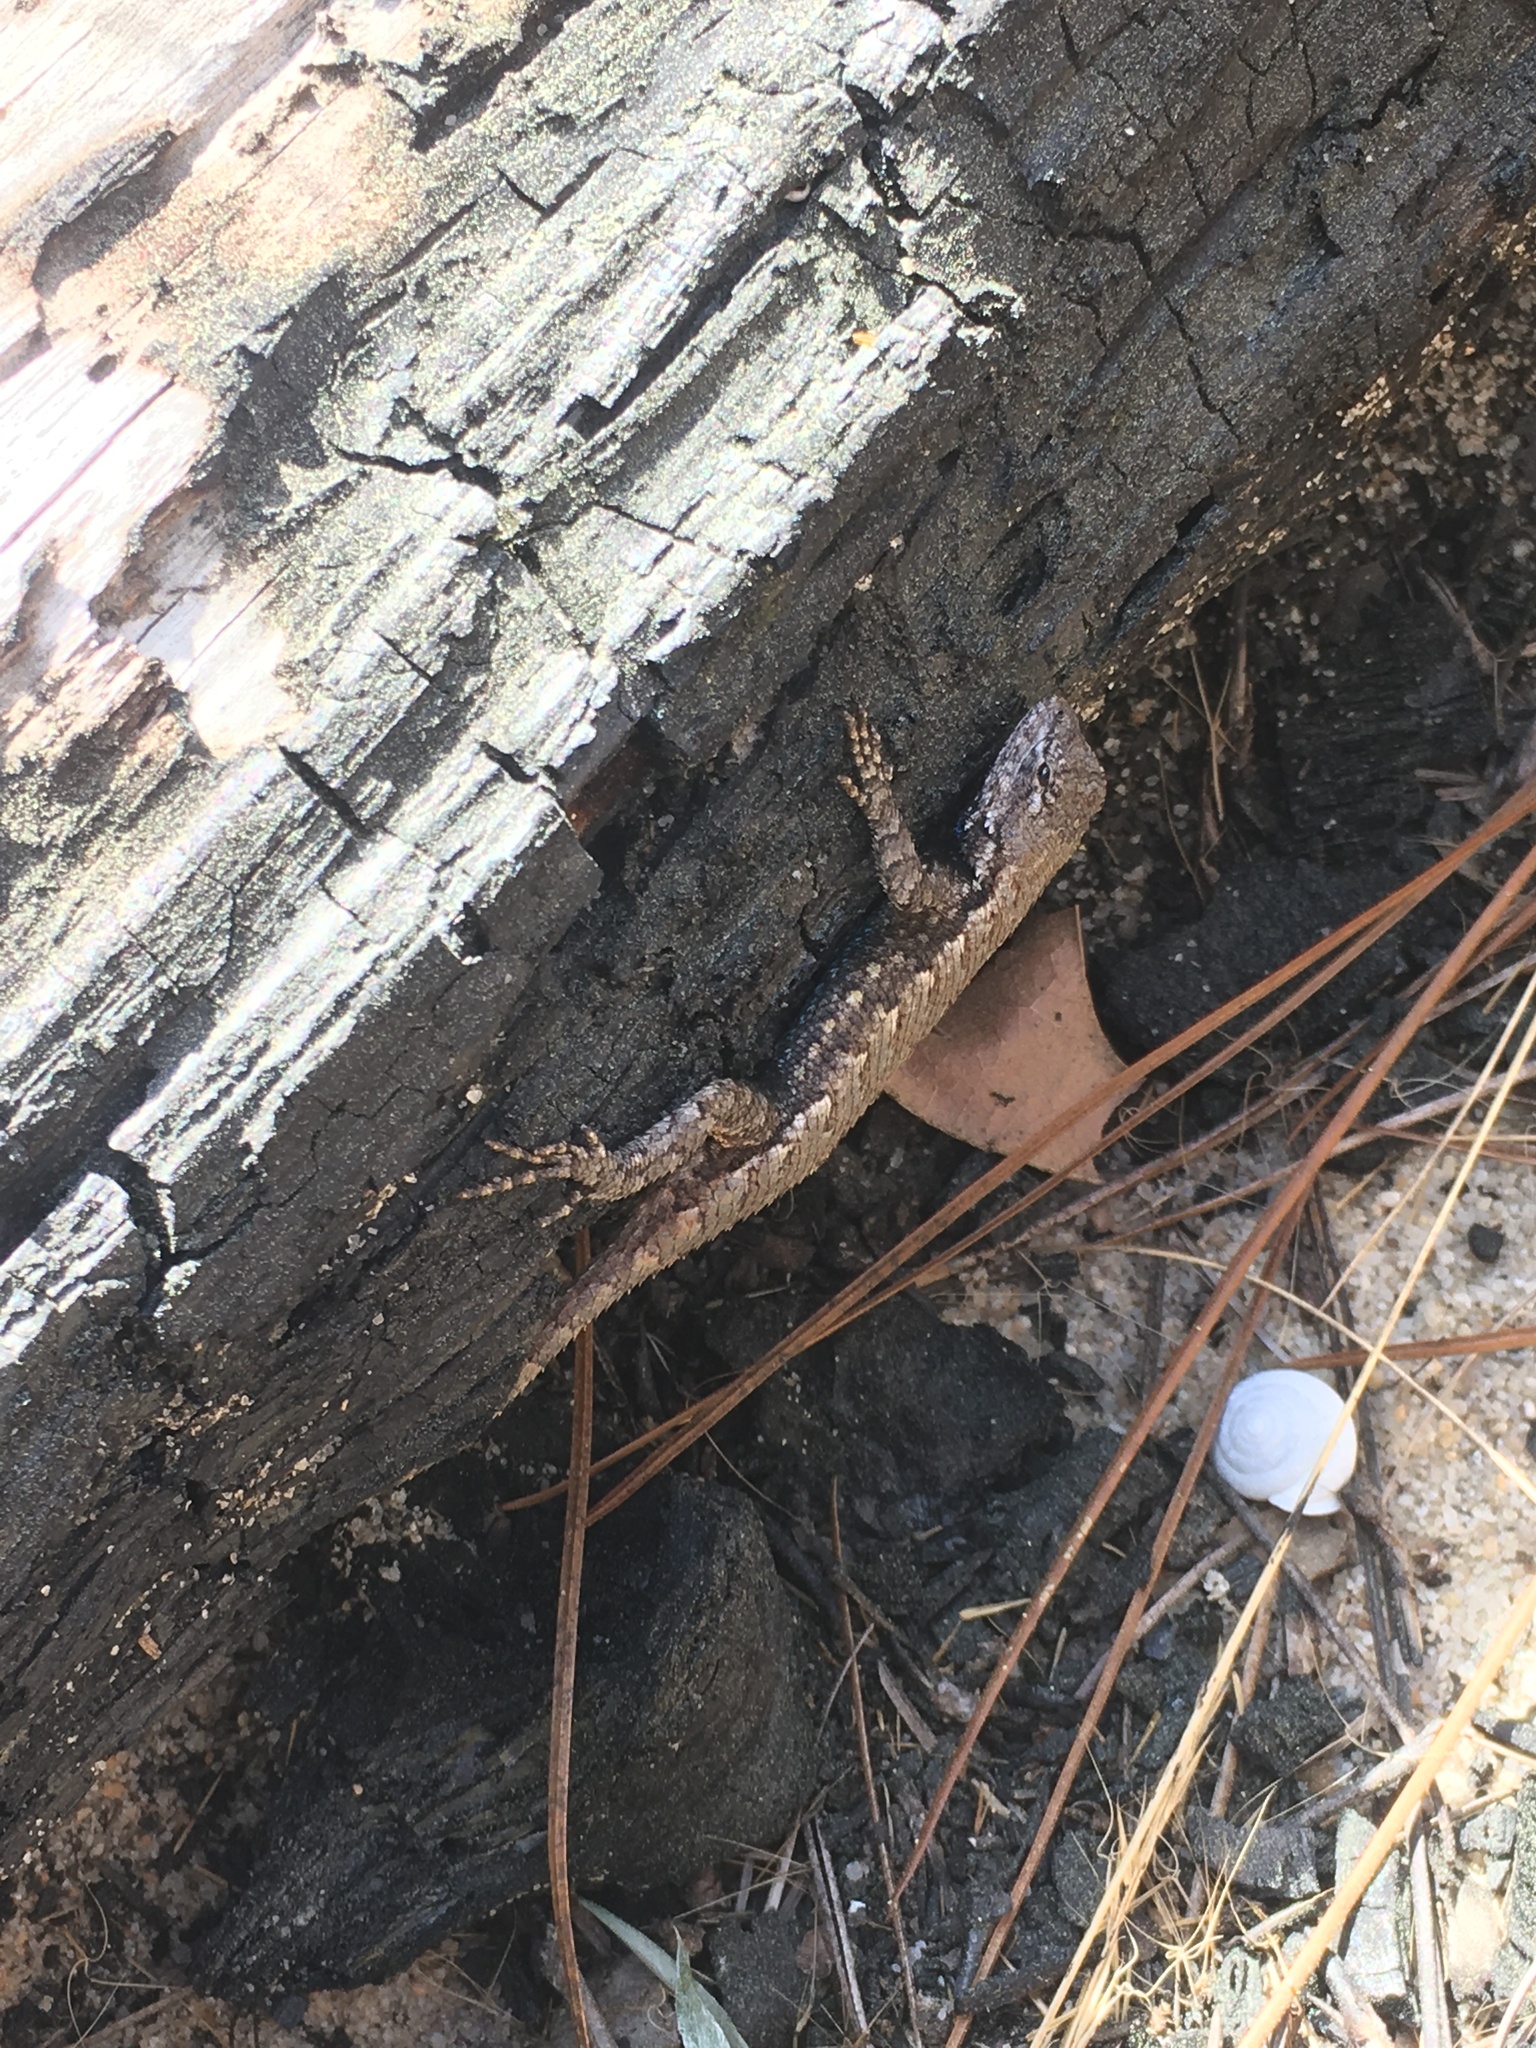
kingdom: Animalia
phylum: Chordata
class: Squamata
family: Phrynosomatidae
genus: Sceloporus
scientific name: Sceloporus undulatus
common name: Eastern fence lizard
